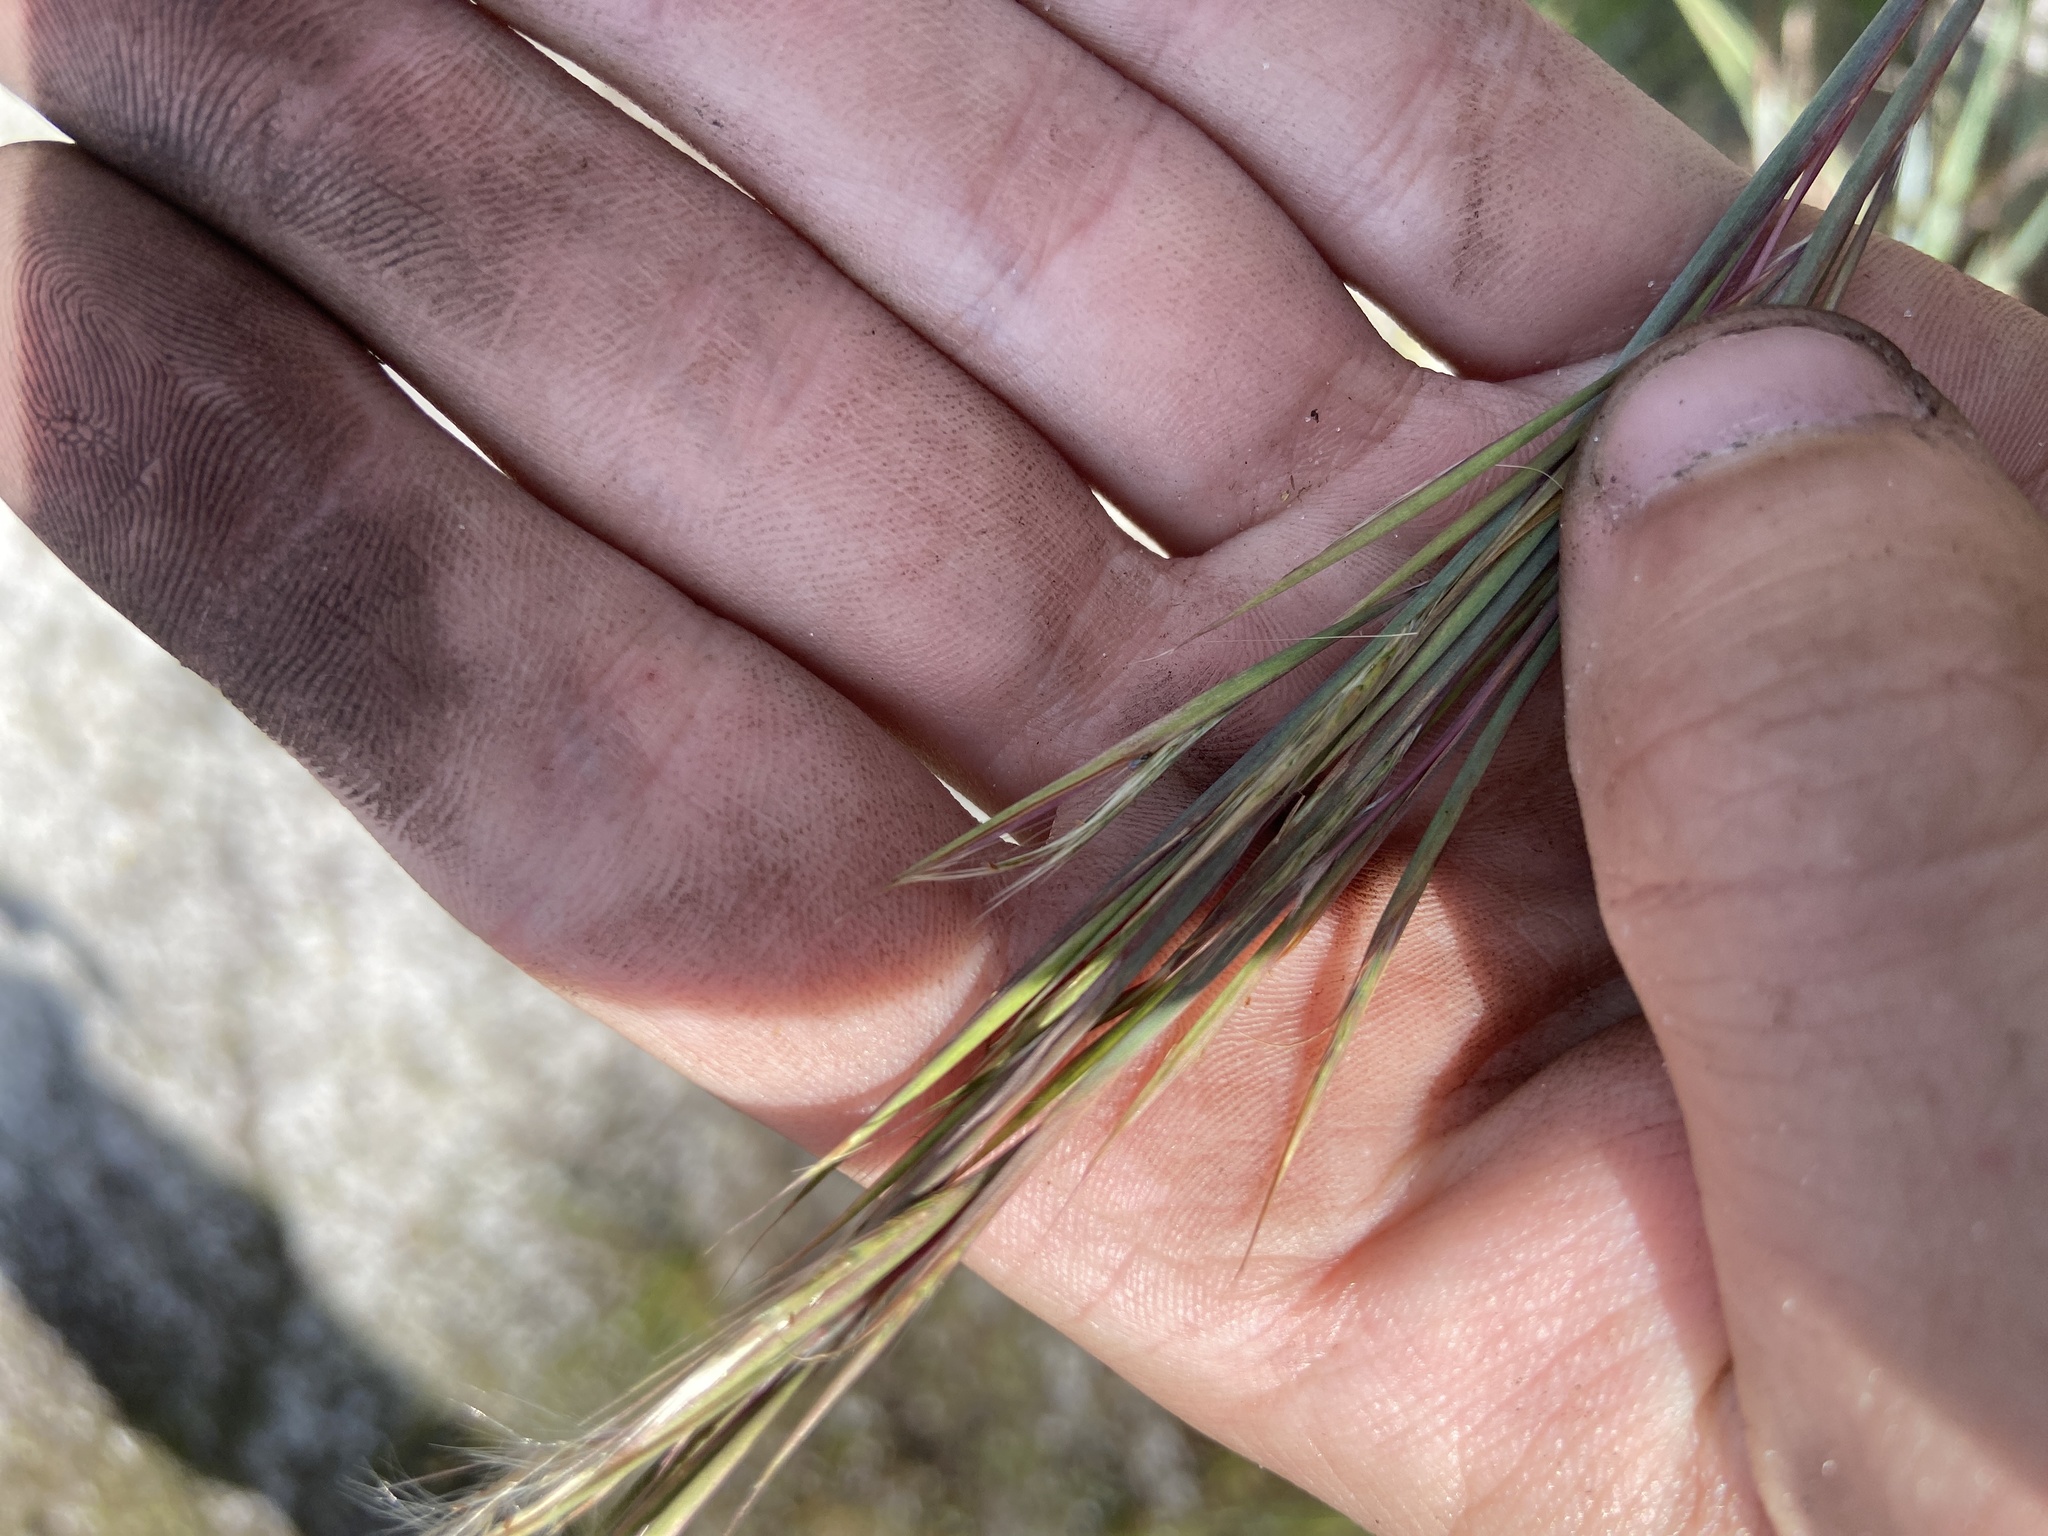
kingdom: Plantae
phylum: Tracheophyta
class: Liliopsida
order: Poales
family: Poaceae
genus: Andropogon
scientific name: Andropogon cretaceus
